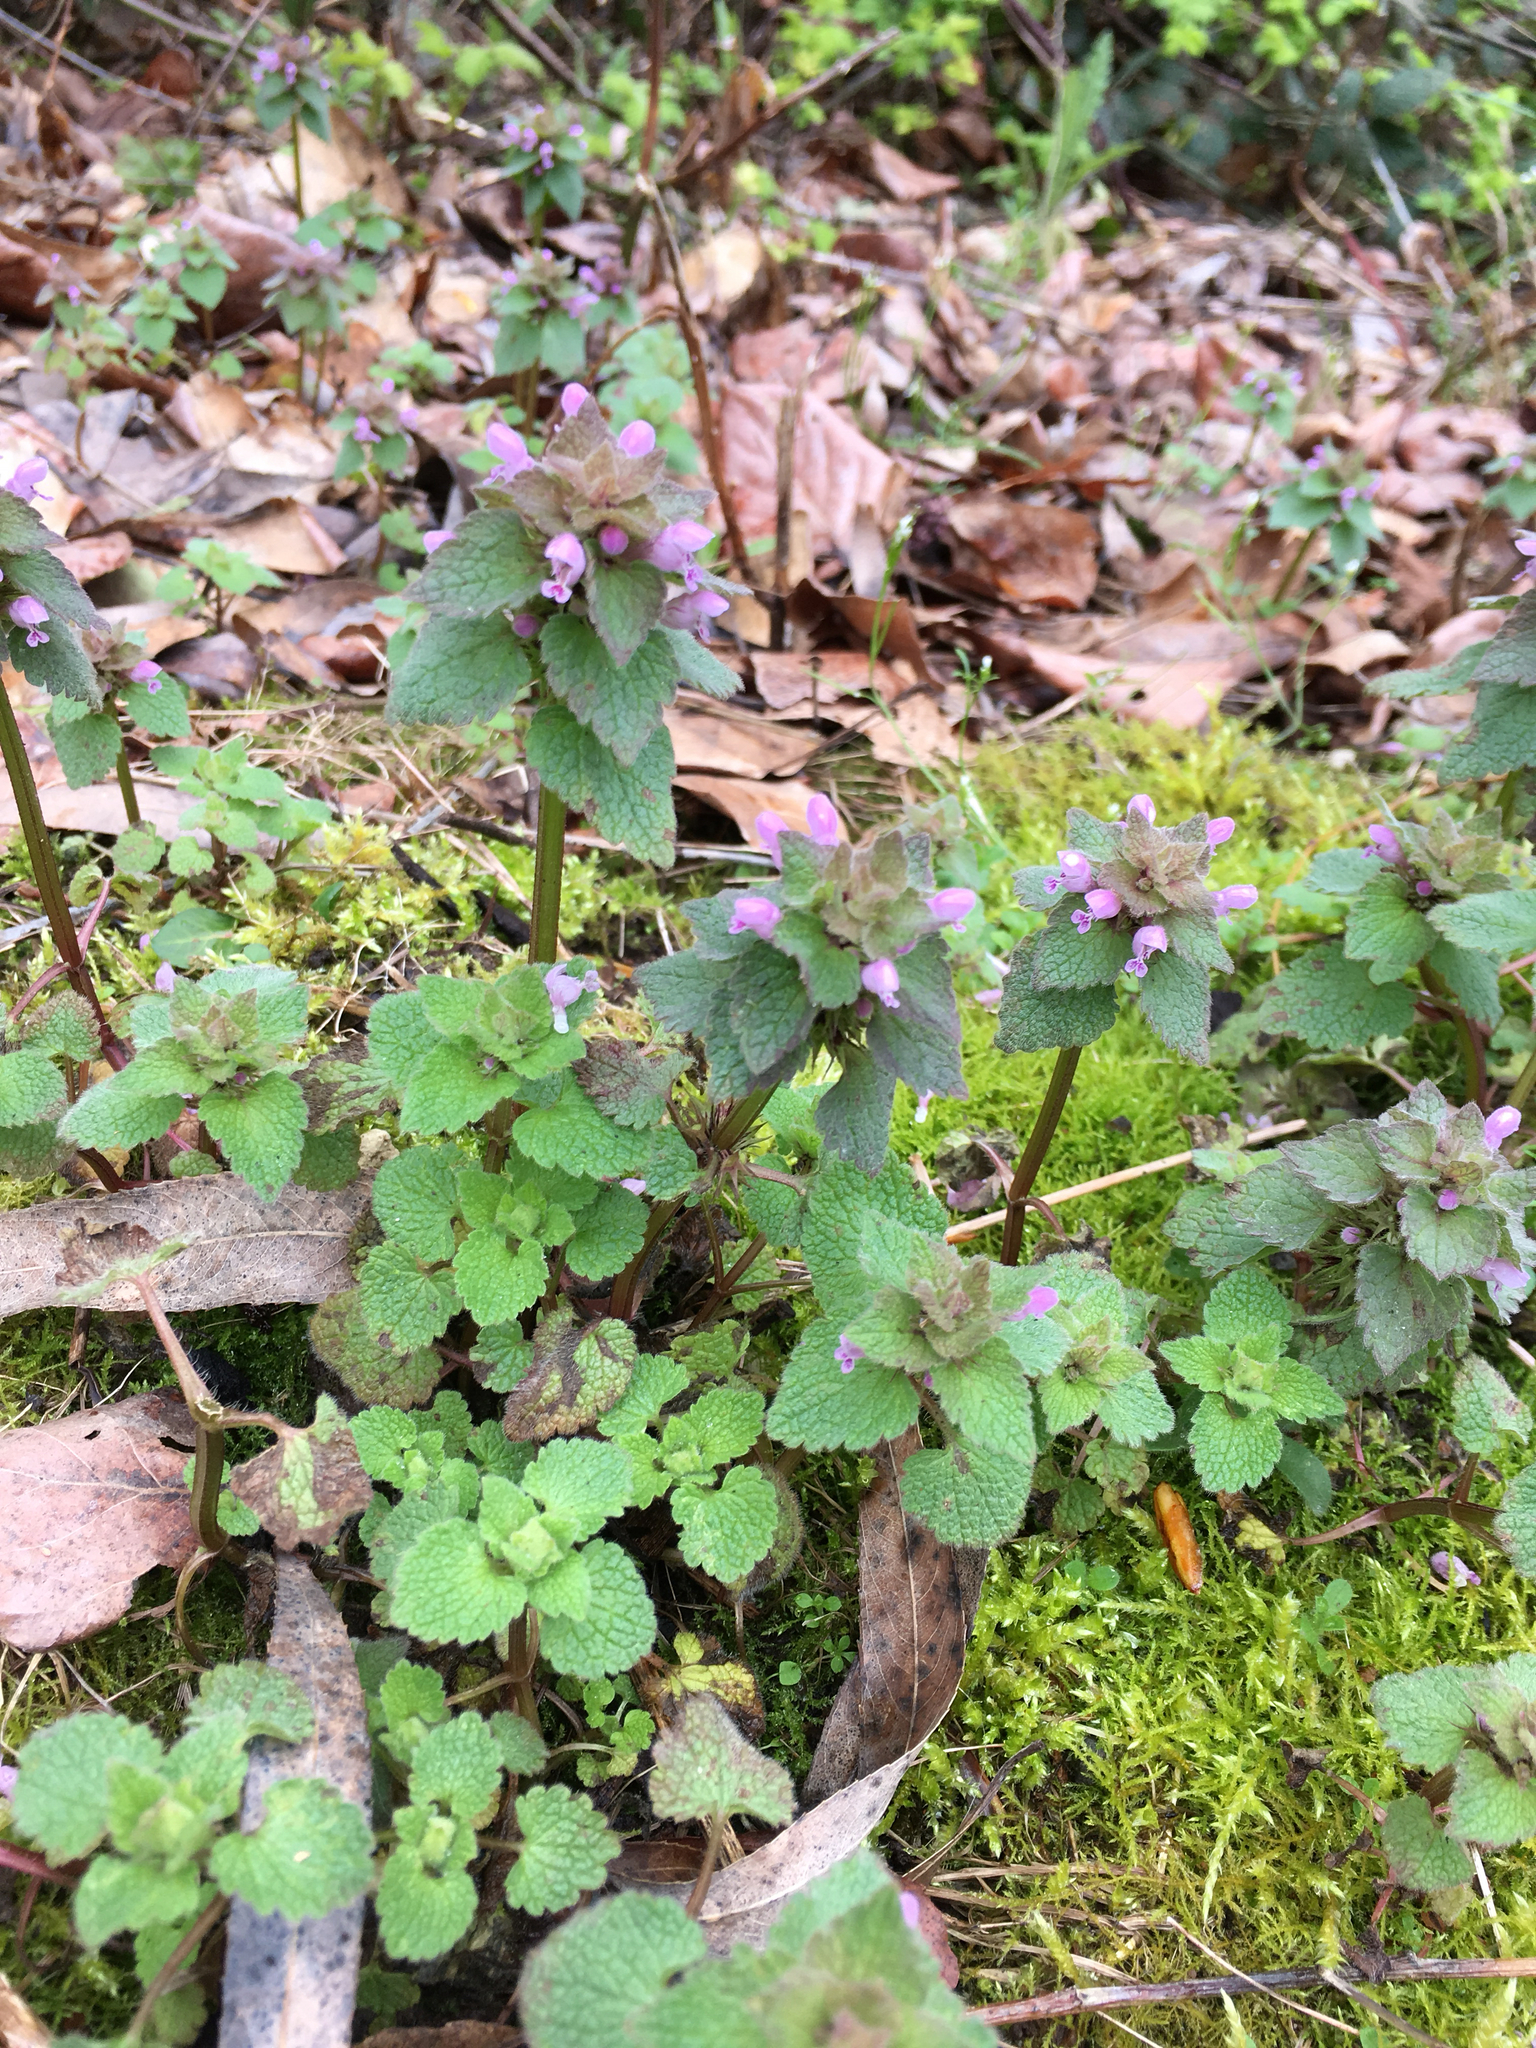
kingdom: Plantae
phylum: Tracheophyta
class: Magnoliopsida
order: Lamiales
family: Lamiaceae
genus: Lamium
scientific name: Lamium purpureum
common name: Red dead-nettle
